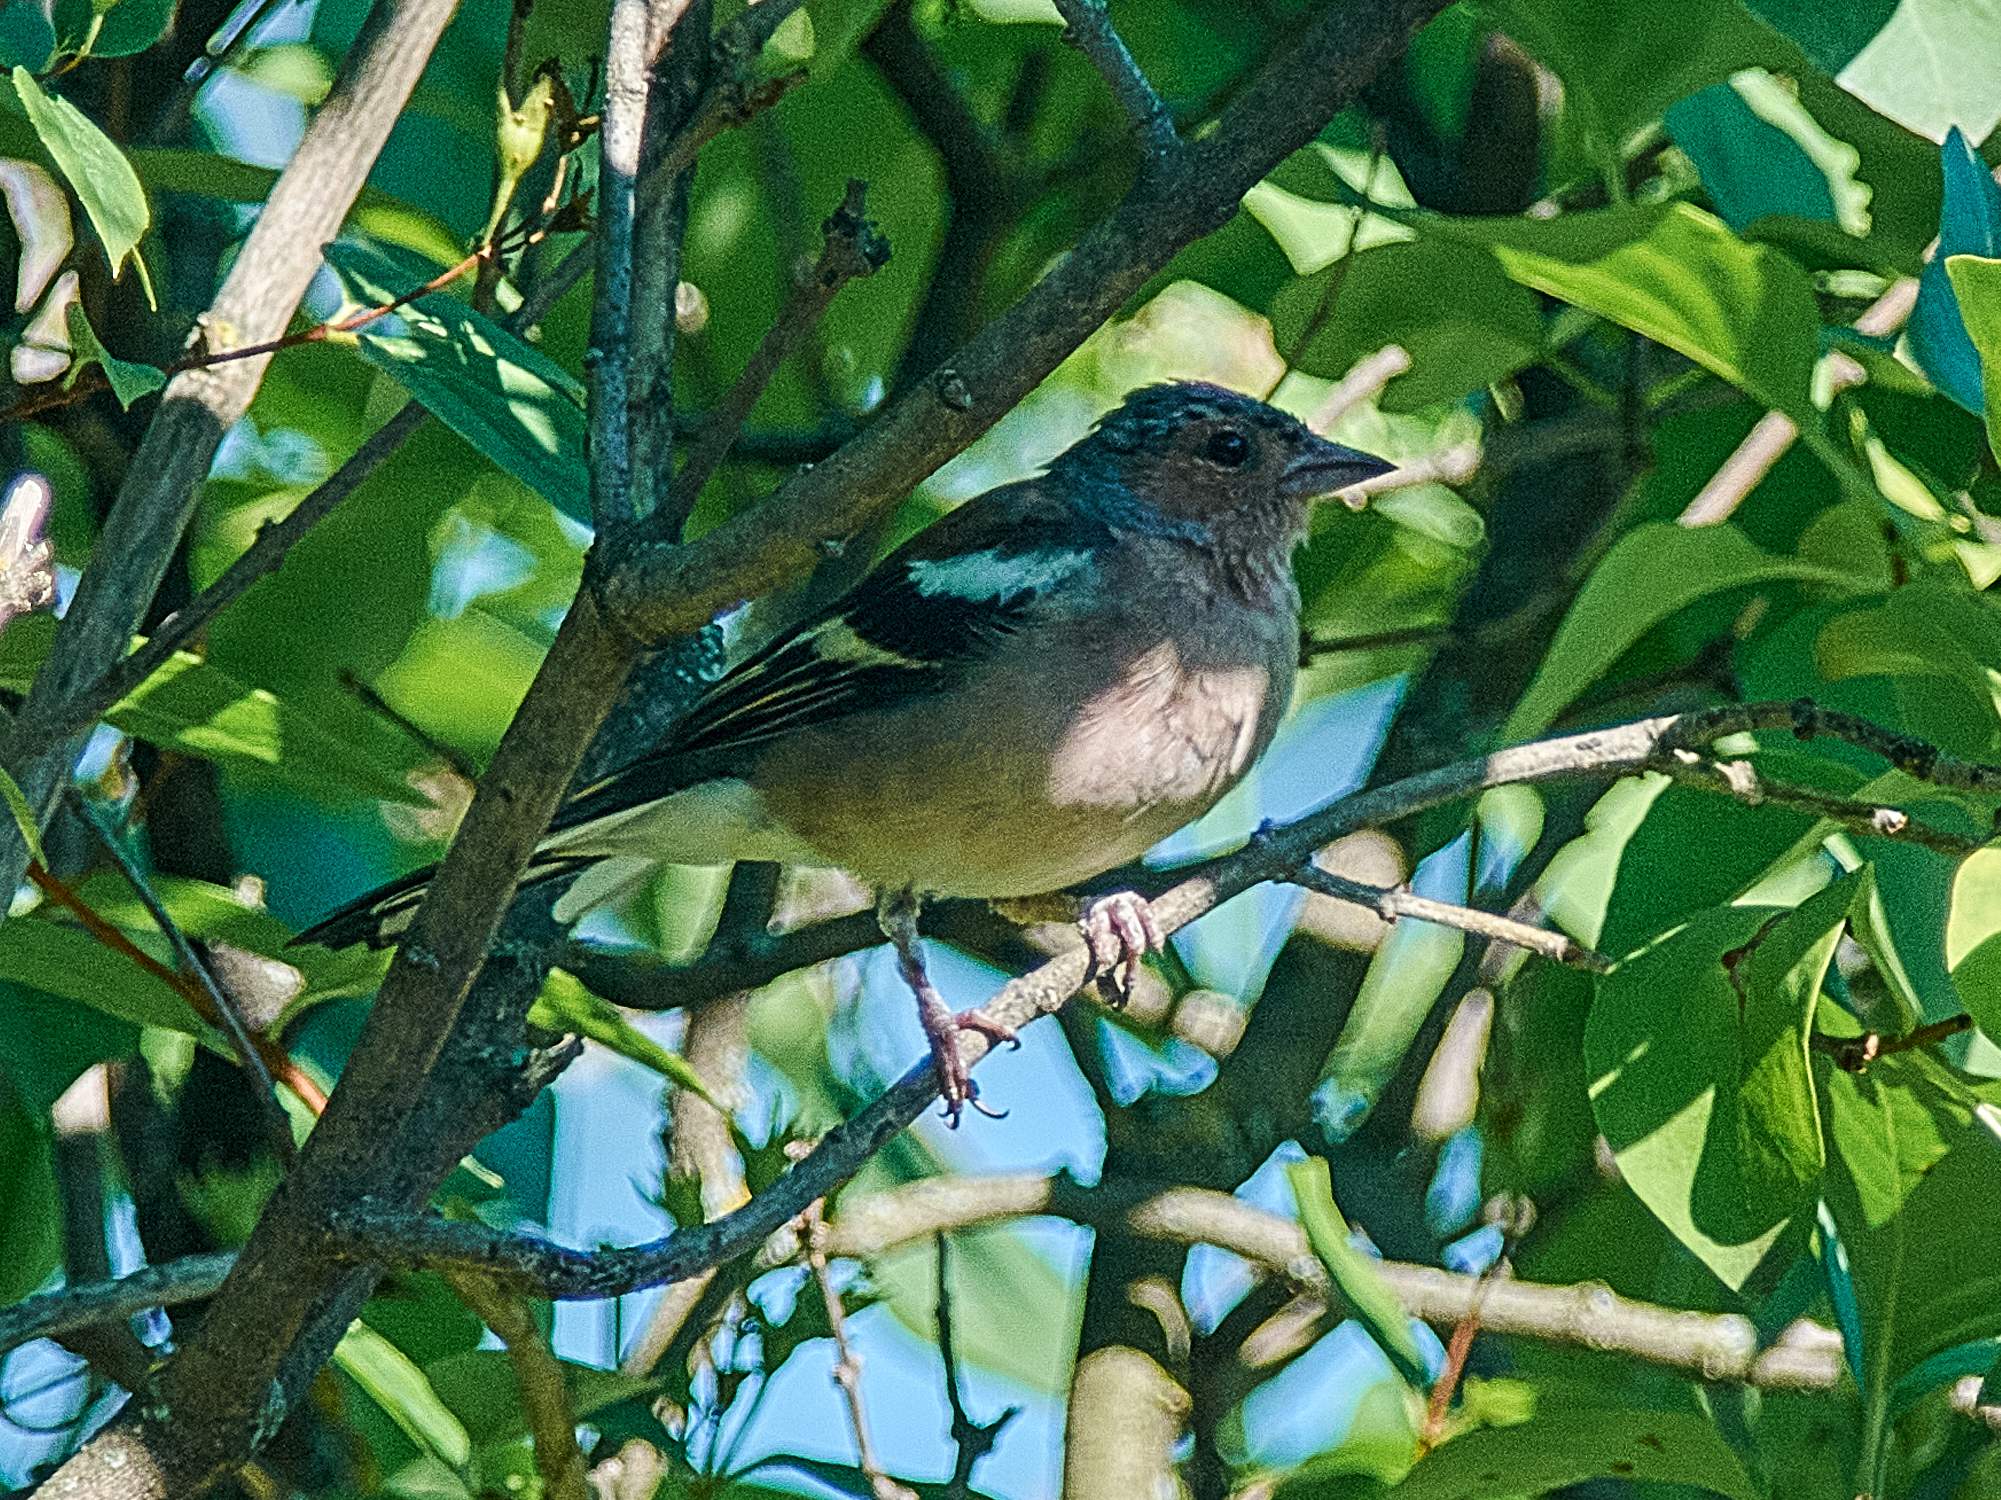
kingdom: Animalia
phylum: Chordata
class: Aves
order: Passeriformes
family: Fringillidae
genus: Fringilla
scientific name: Fringilla coelebs
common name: Common chaffinch
